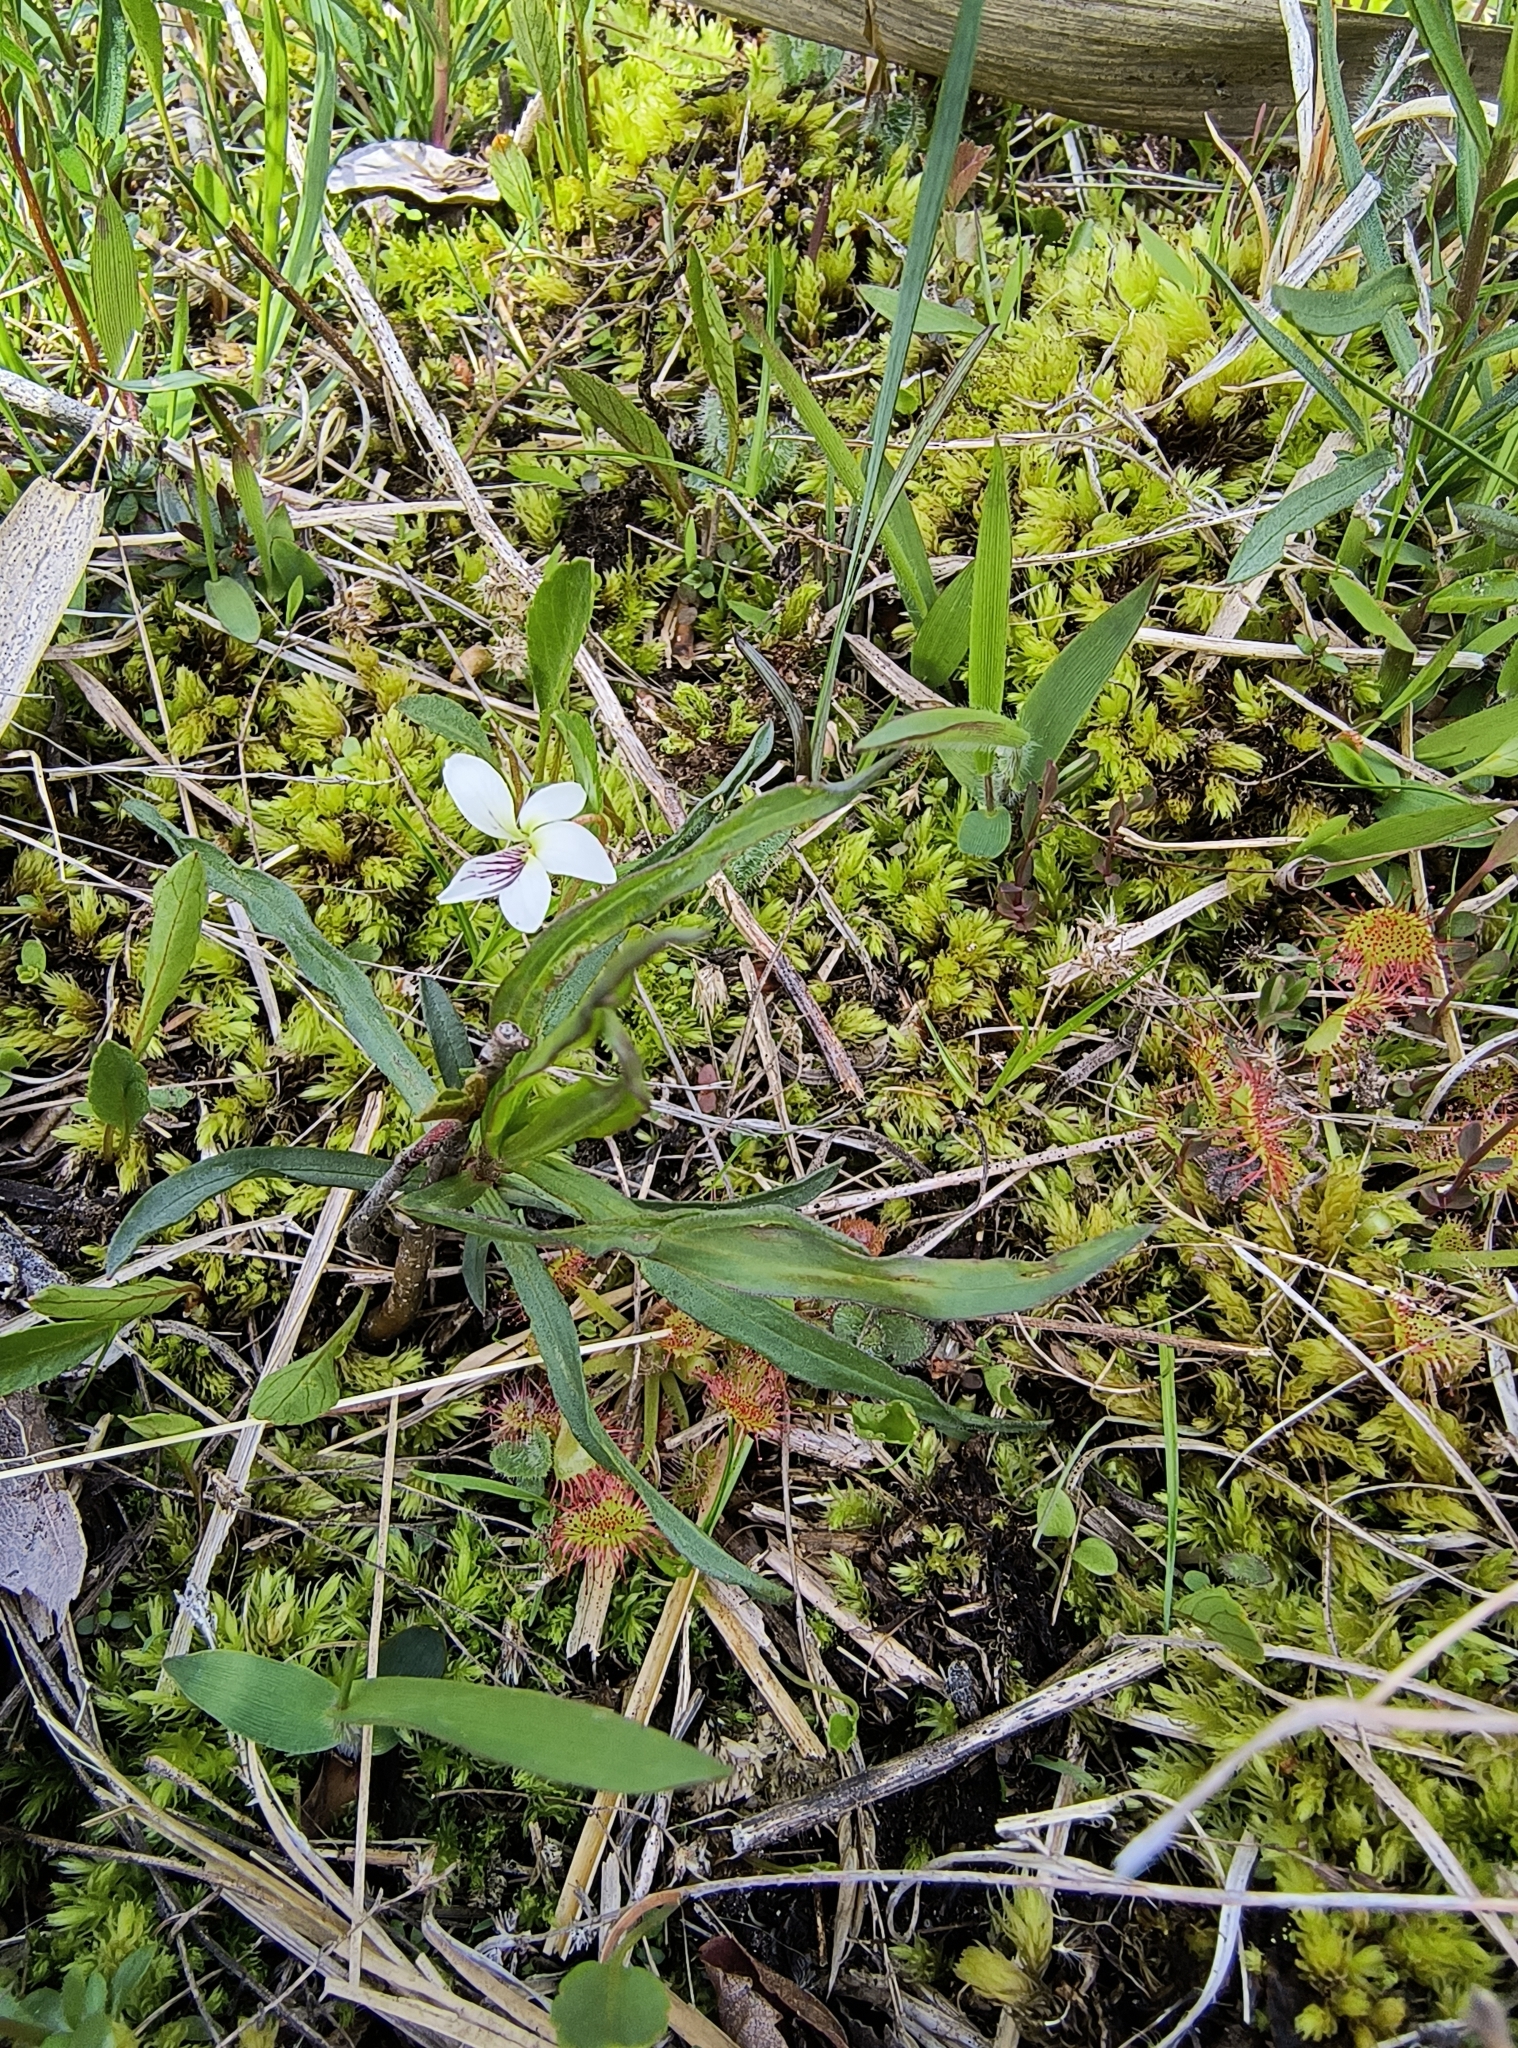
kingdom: Plantae
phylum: Tracheophyta
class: Magnoliopsida
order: Malpighiales
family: Violaceae
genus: Viola
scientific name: Viola lanceolata
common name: Bog white violet
